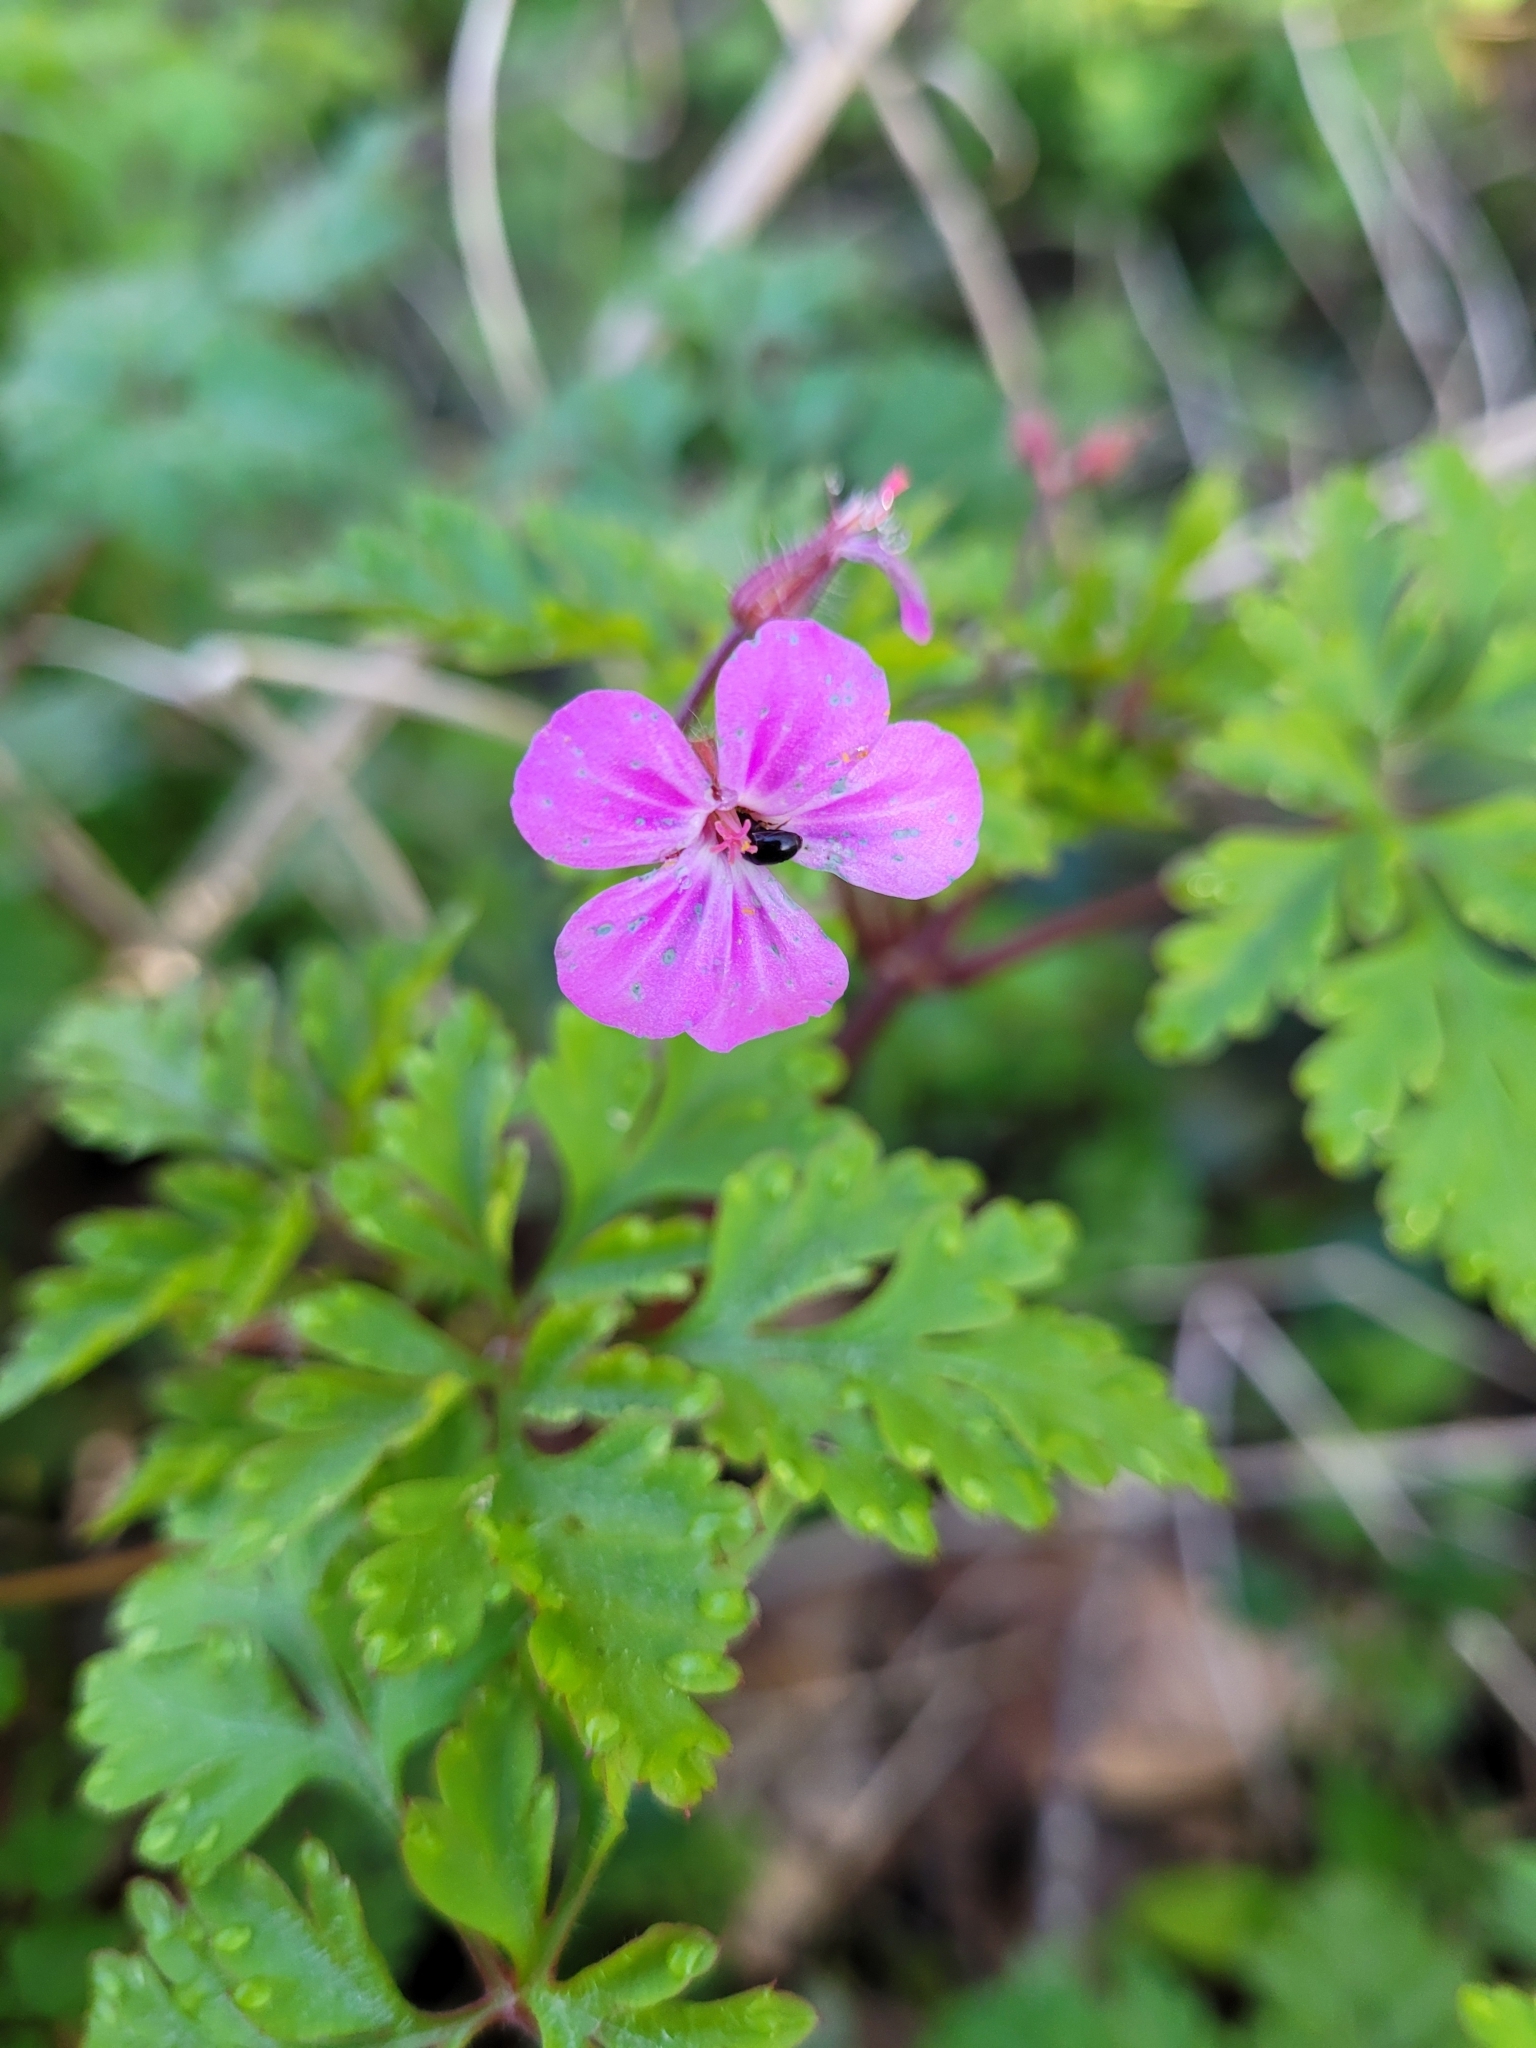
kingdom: Plantae
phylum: Tracheophyta
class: Magnoliopsida
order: Geraniales
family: Geraniaceae
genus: Geranium
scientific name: Geranium robertianum
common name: Herb-robert
